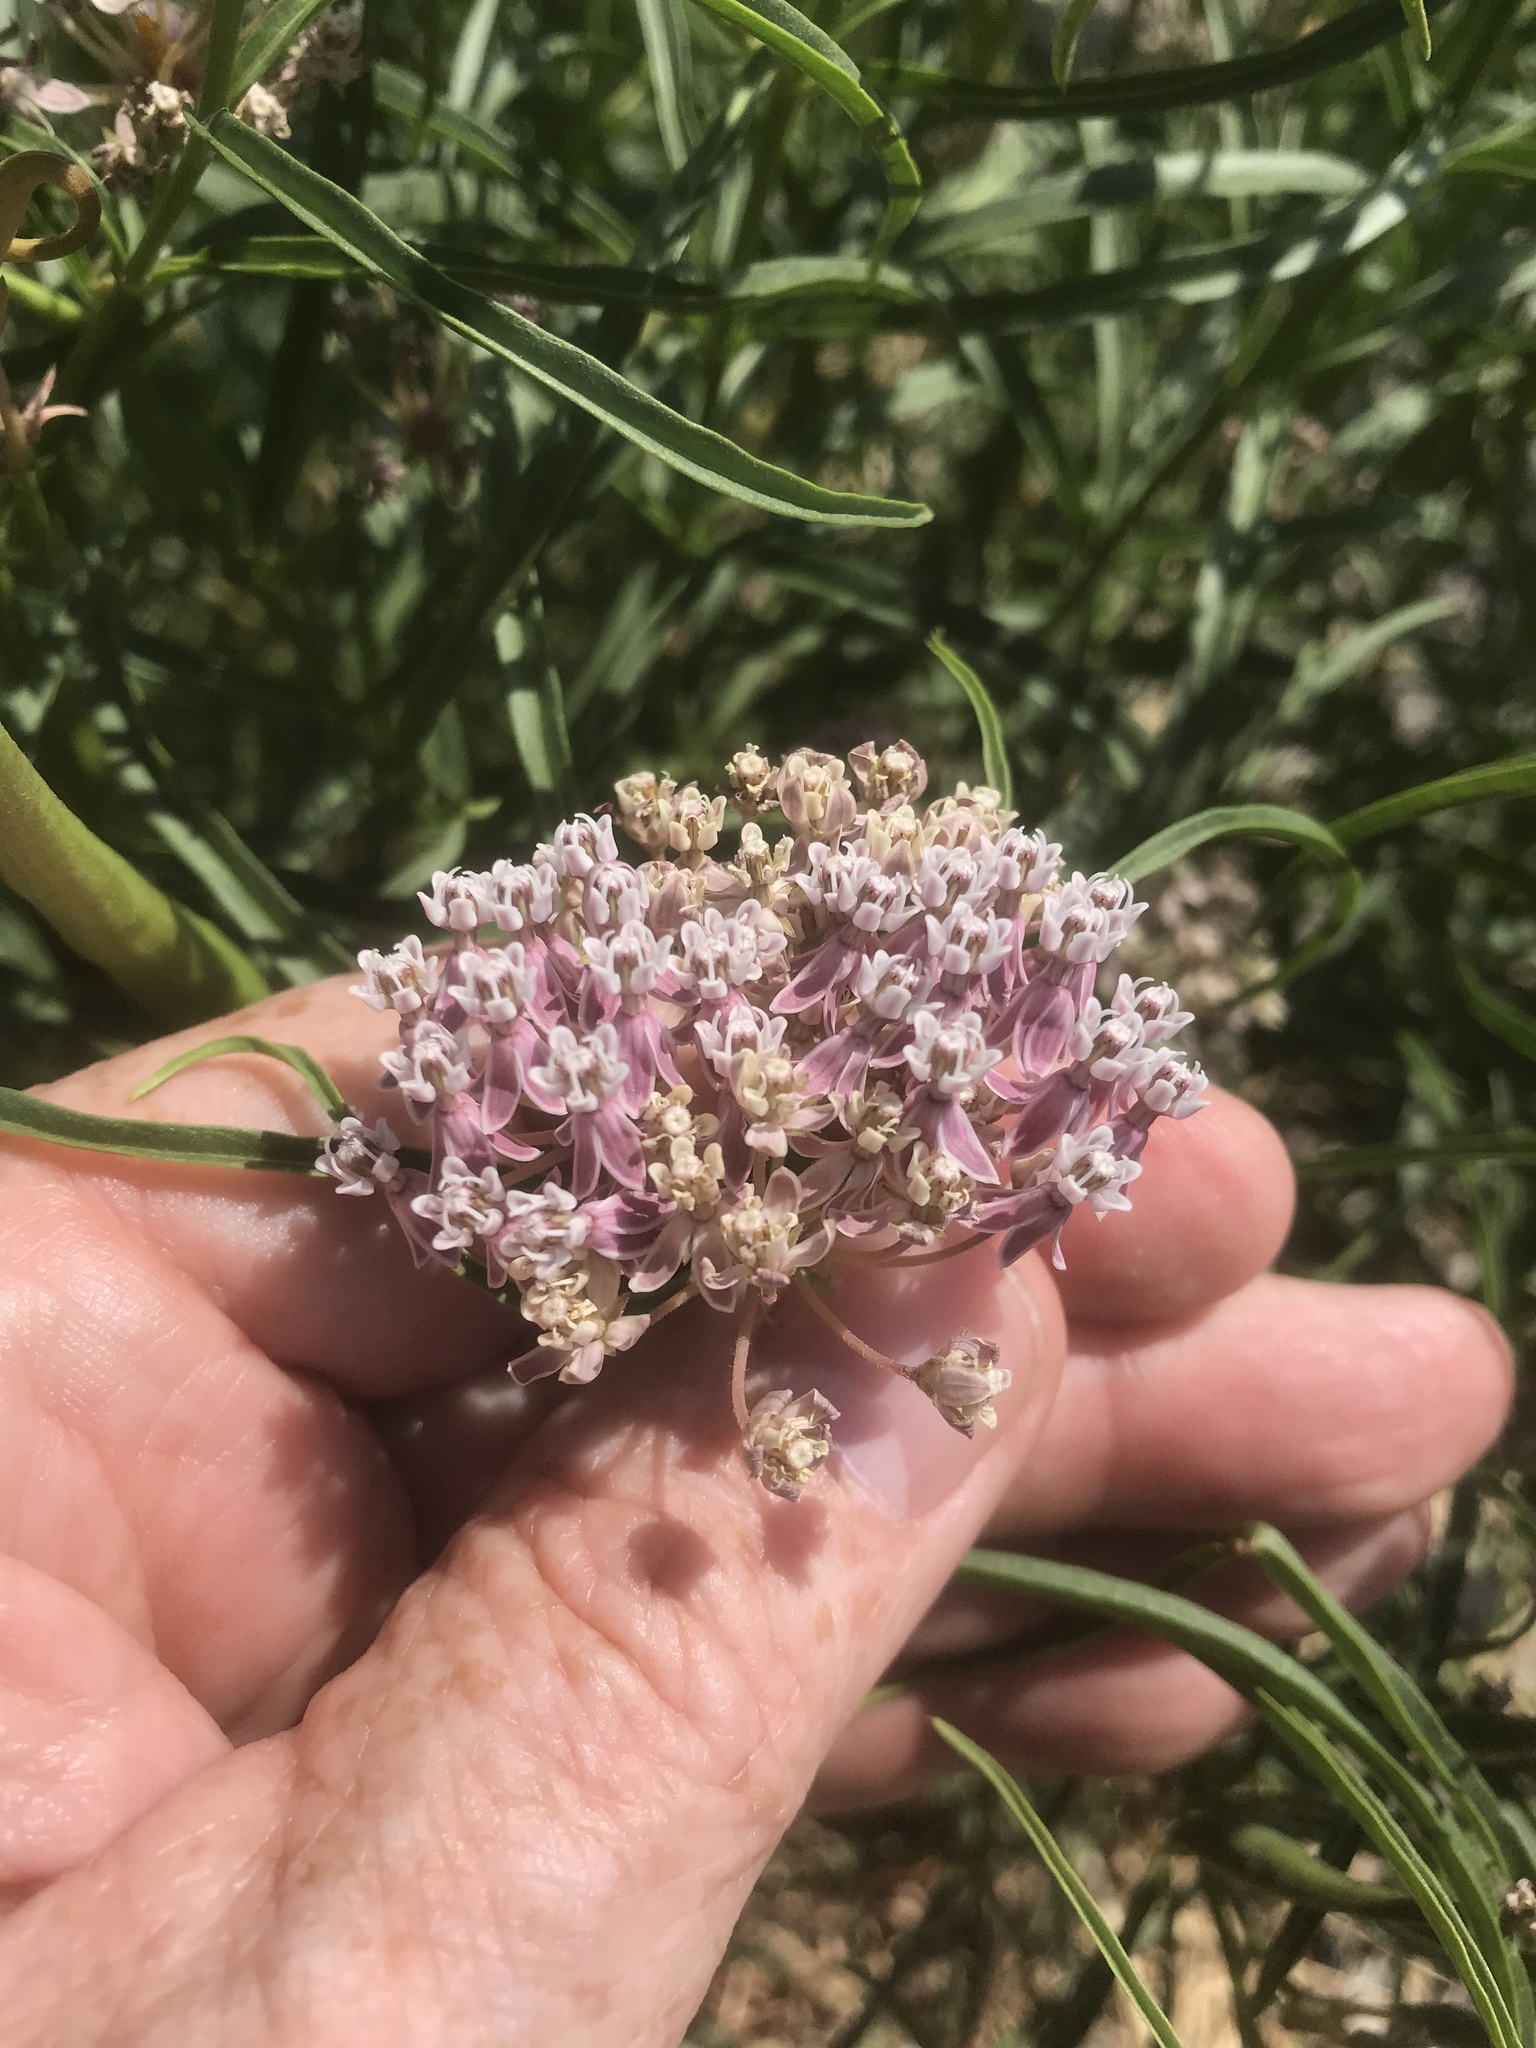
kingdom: Plantae
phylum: Tracheophyta
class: Magnoliopsida
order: Gentianales
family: Apocynaceae
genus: Asclepias
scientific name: Asclepias fascicularis
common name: Mexican milkweed
